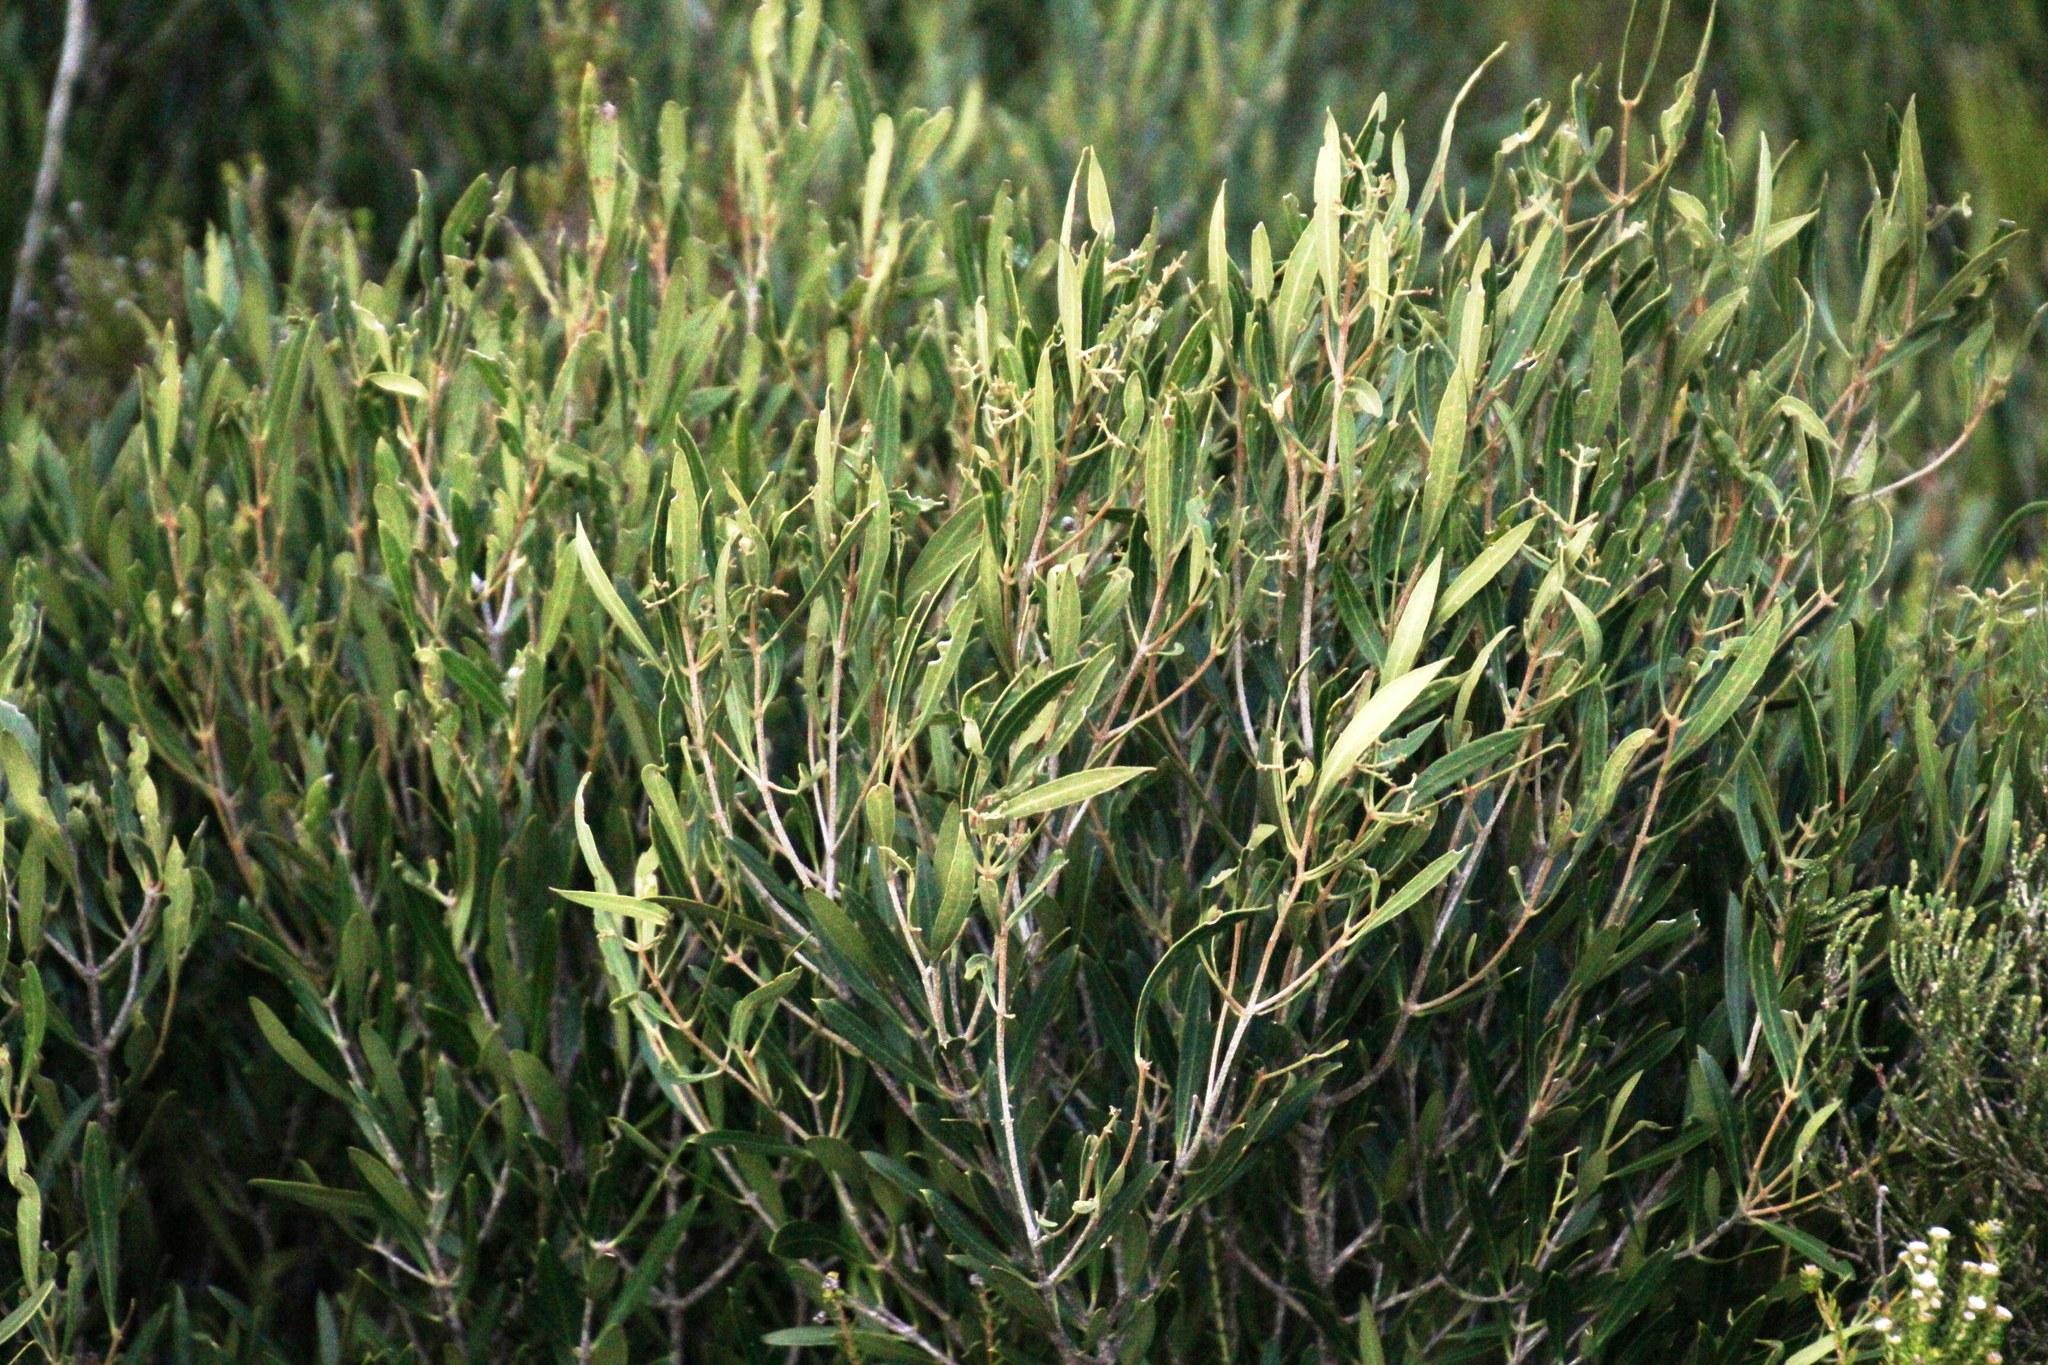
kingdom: Plantae
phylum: Tracheophyta
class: Magnoliopsida
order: Lamiales
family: Oleaceae
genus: Olea
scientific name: Olea exasperata
